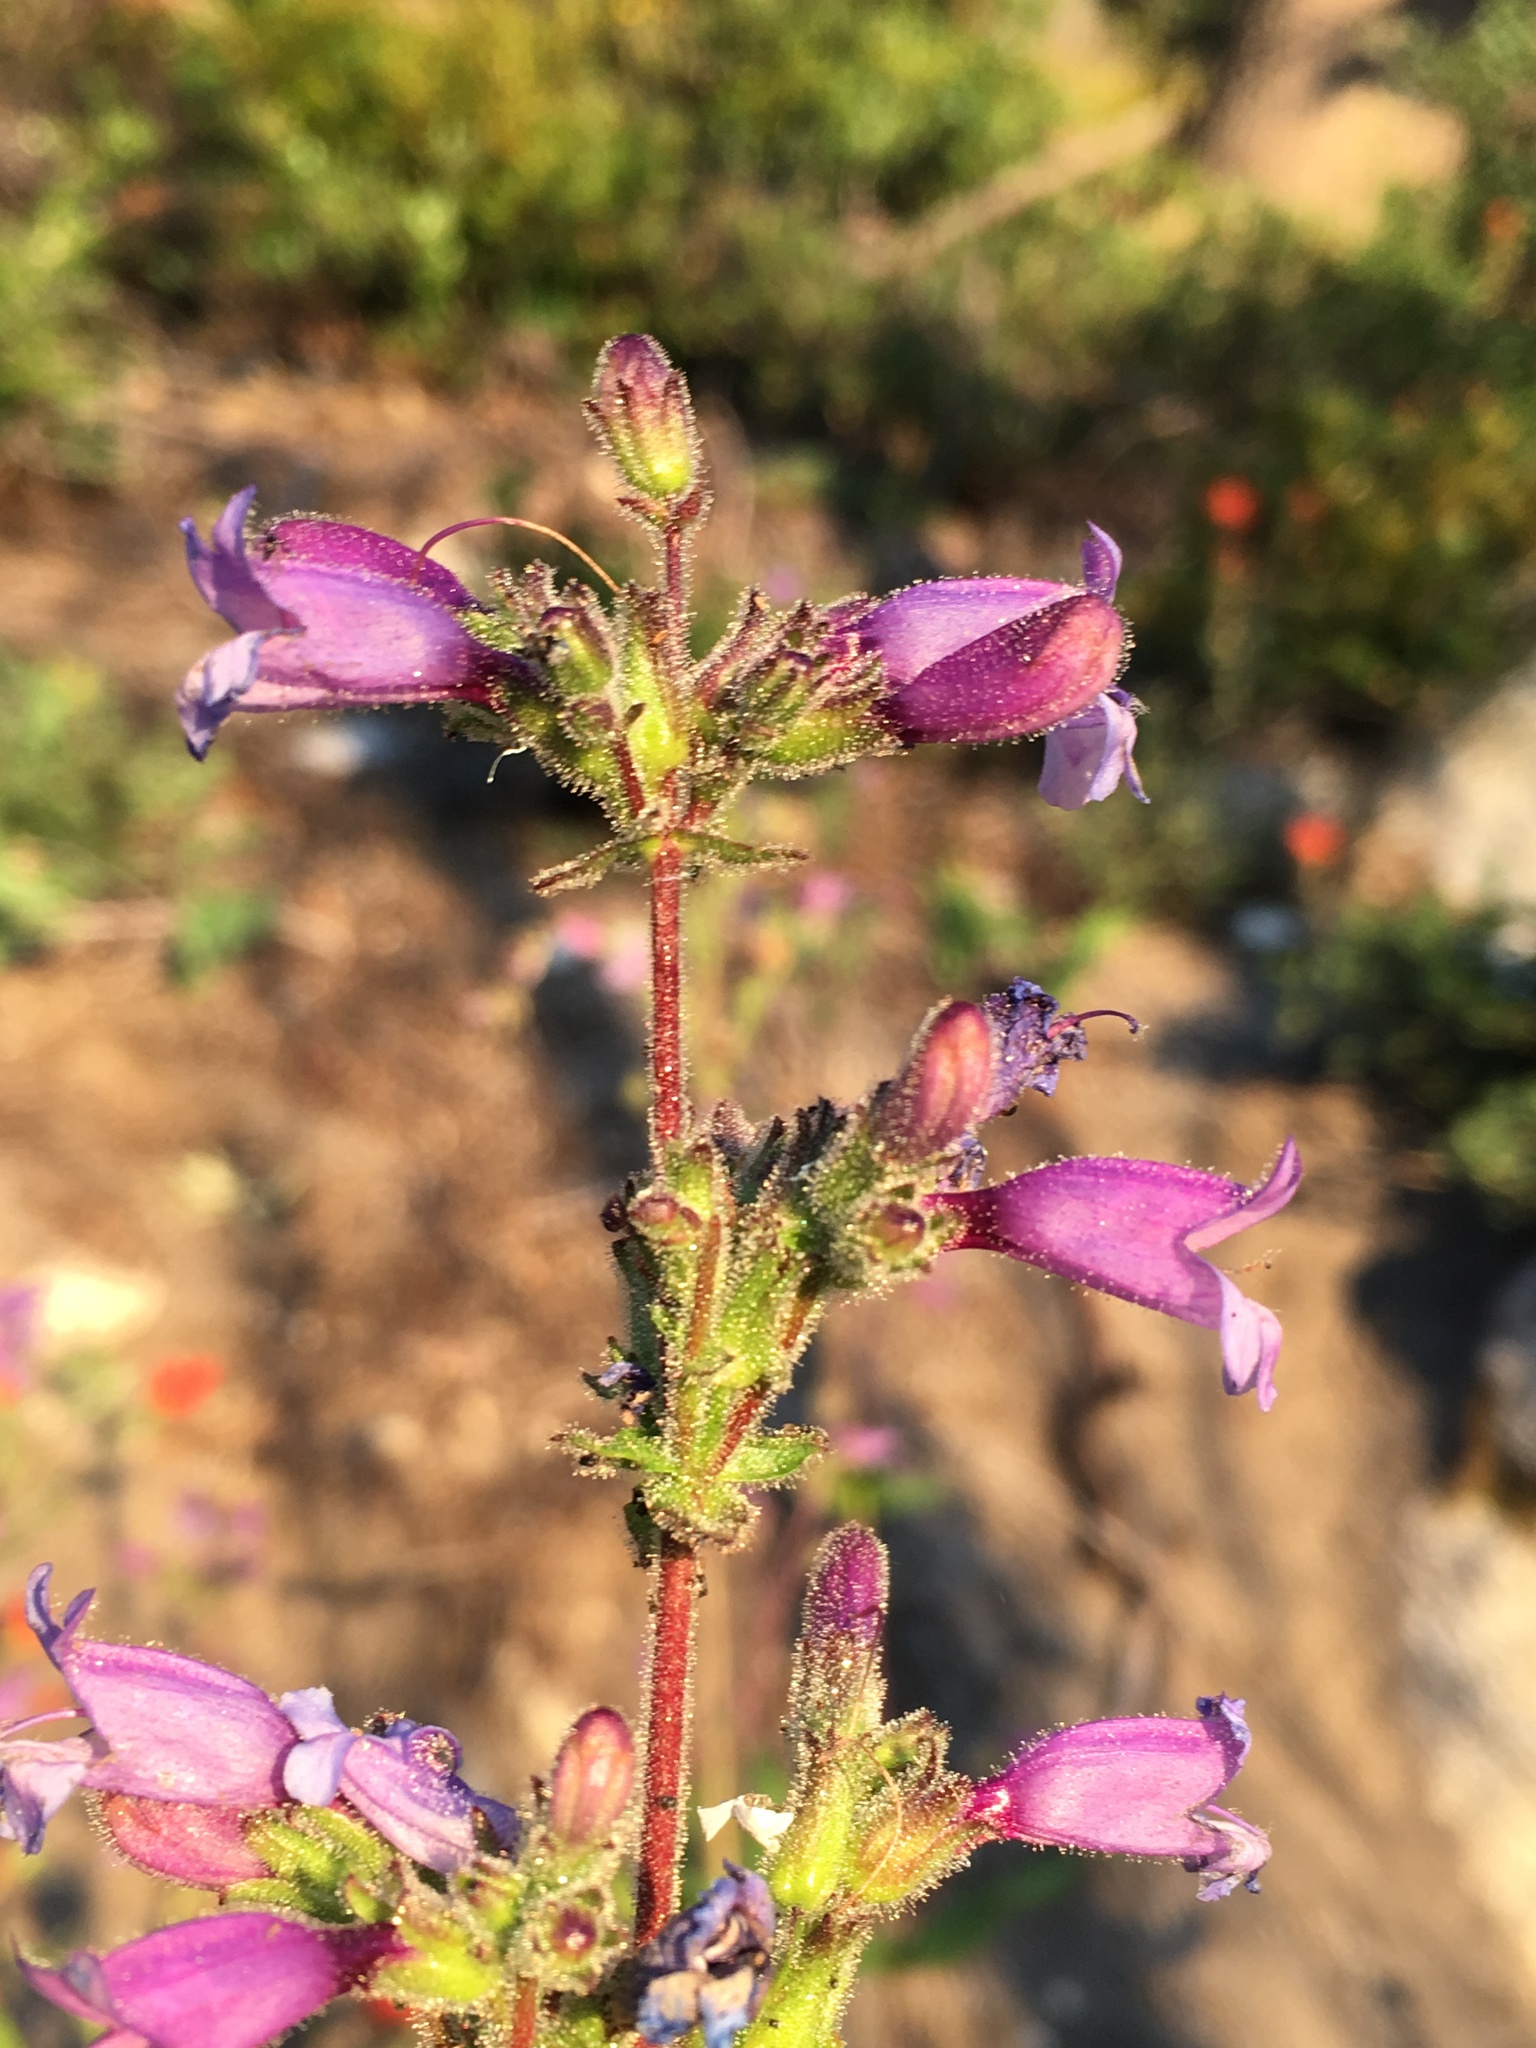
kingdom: Plantae
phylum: Tracheophyta
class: Magnoliopsida
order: Lamiales
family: Plantaginaceae
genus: Penstemon
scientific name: Penstemon anguineus
